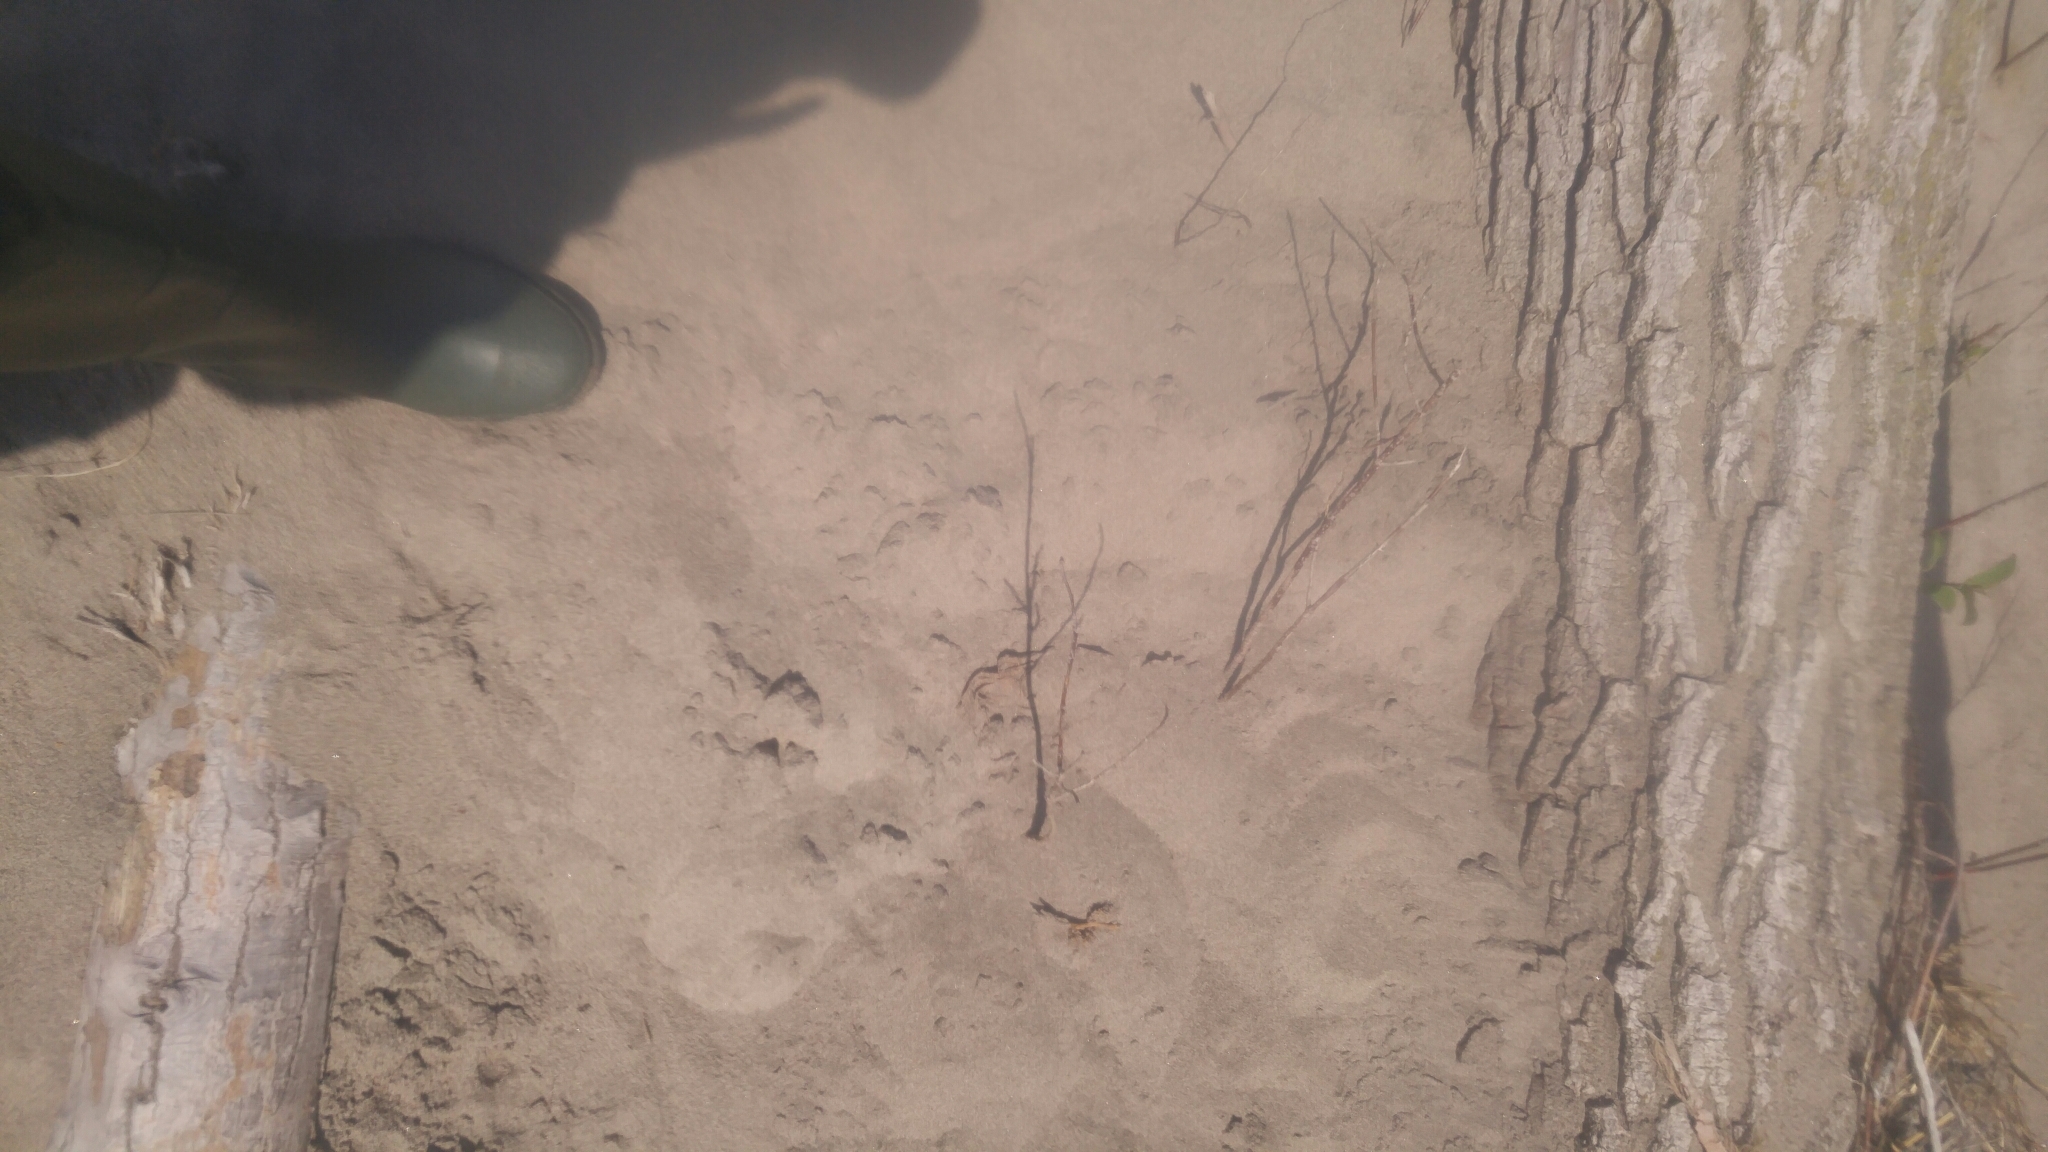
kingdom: Animalia
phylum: Chordata
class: Testudines
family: Chelydridae
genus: Chelydra
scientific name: Chelydra serpentina
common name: Common snapping turtle
